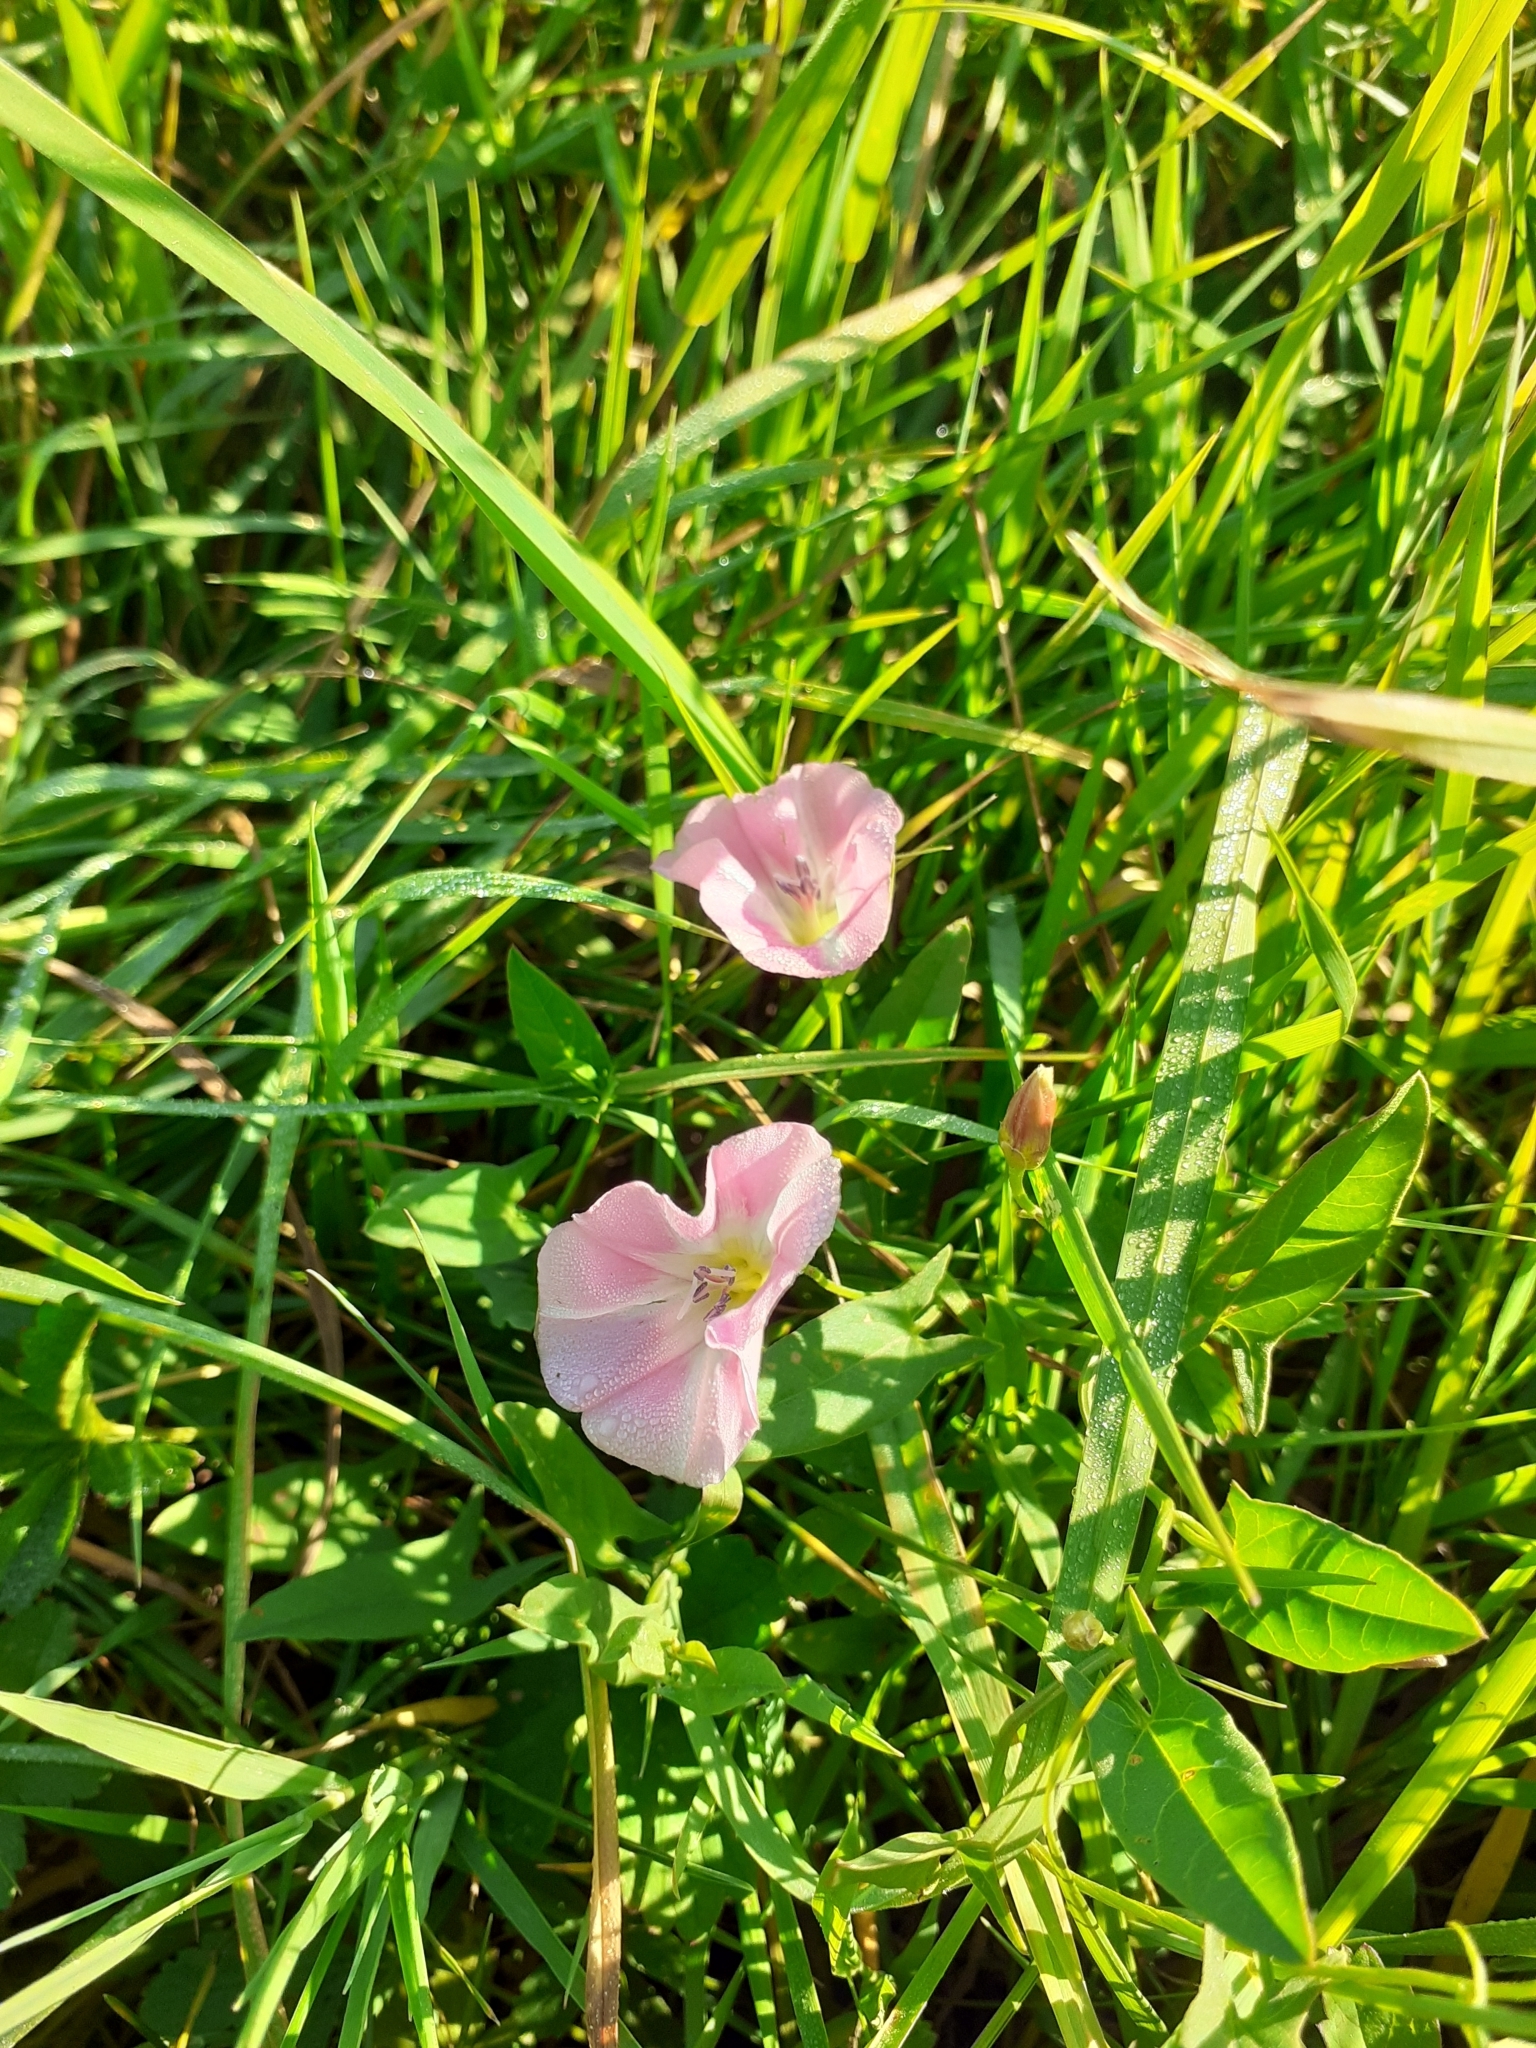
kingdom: Plantae
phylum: Tracheophyta
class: Magnoliopsida
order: Solanales
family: Convolvulaceae
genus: Convolvulus
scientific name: Convolvulus arvensis
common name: Field bindweed
